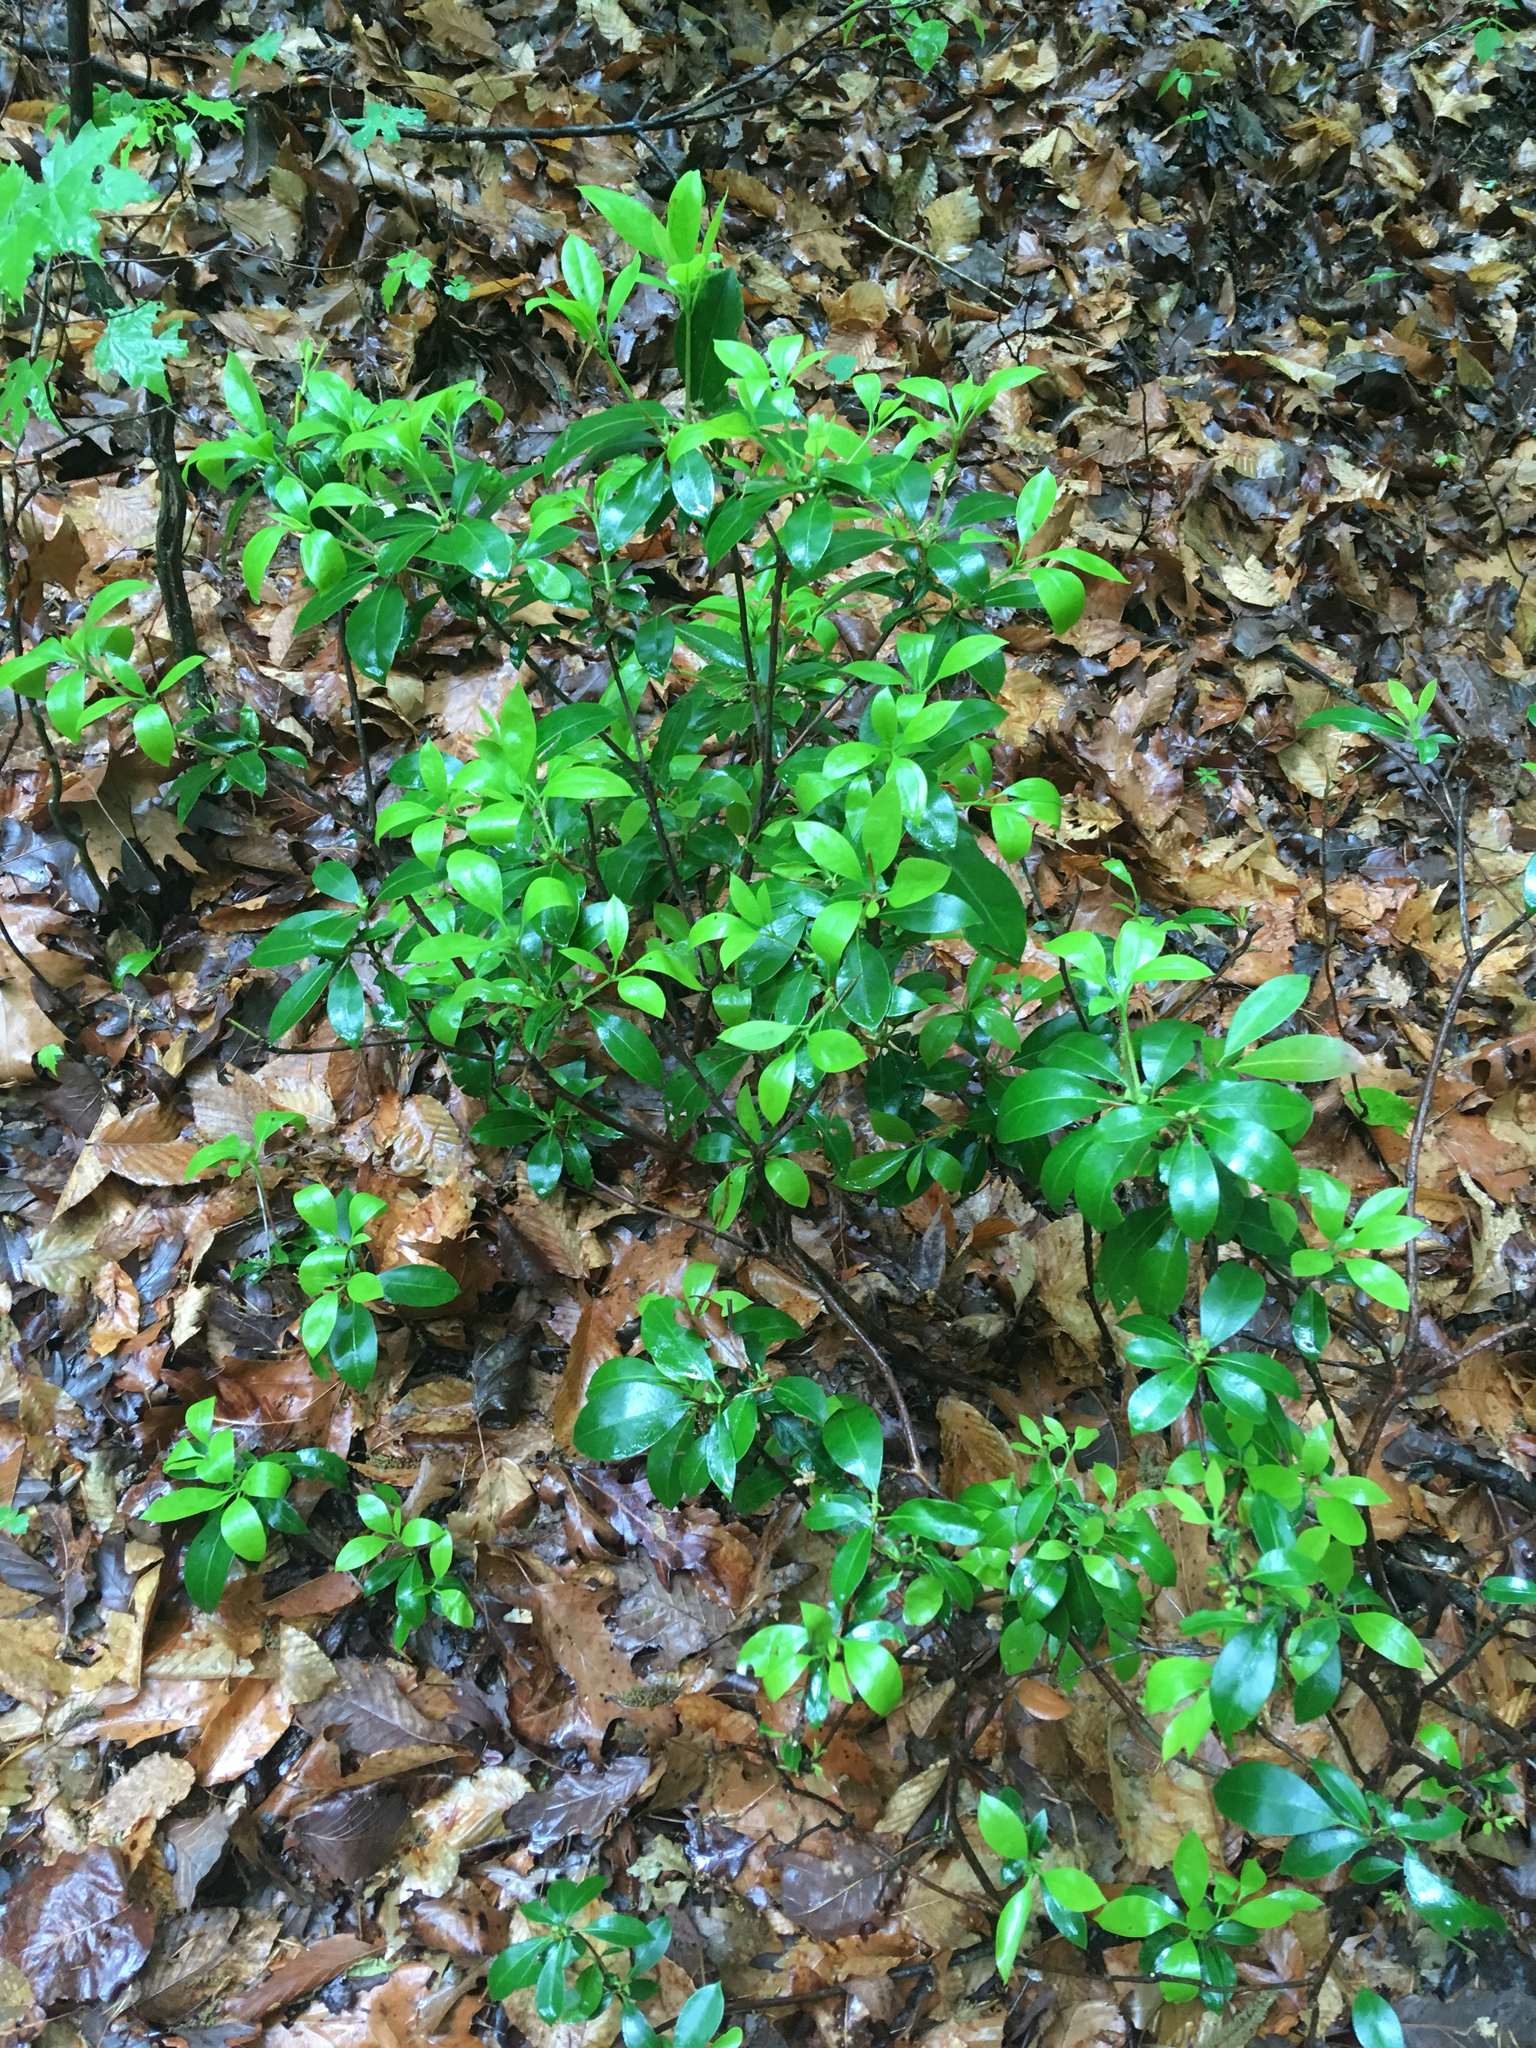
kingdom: Plantae
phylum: Tracheophyta
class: Magnoliopsida
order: Ericales
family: Ericaceae
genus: Kalmia
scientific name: Kalmia latifolia
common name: Mountain-laurel
